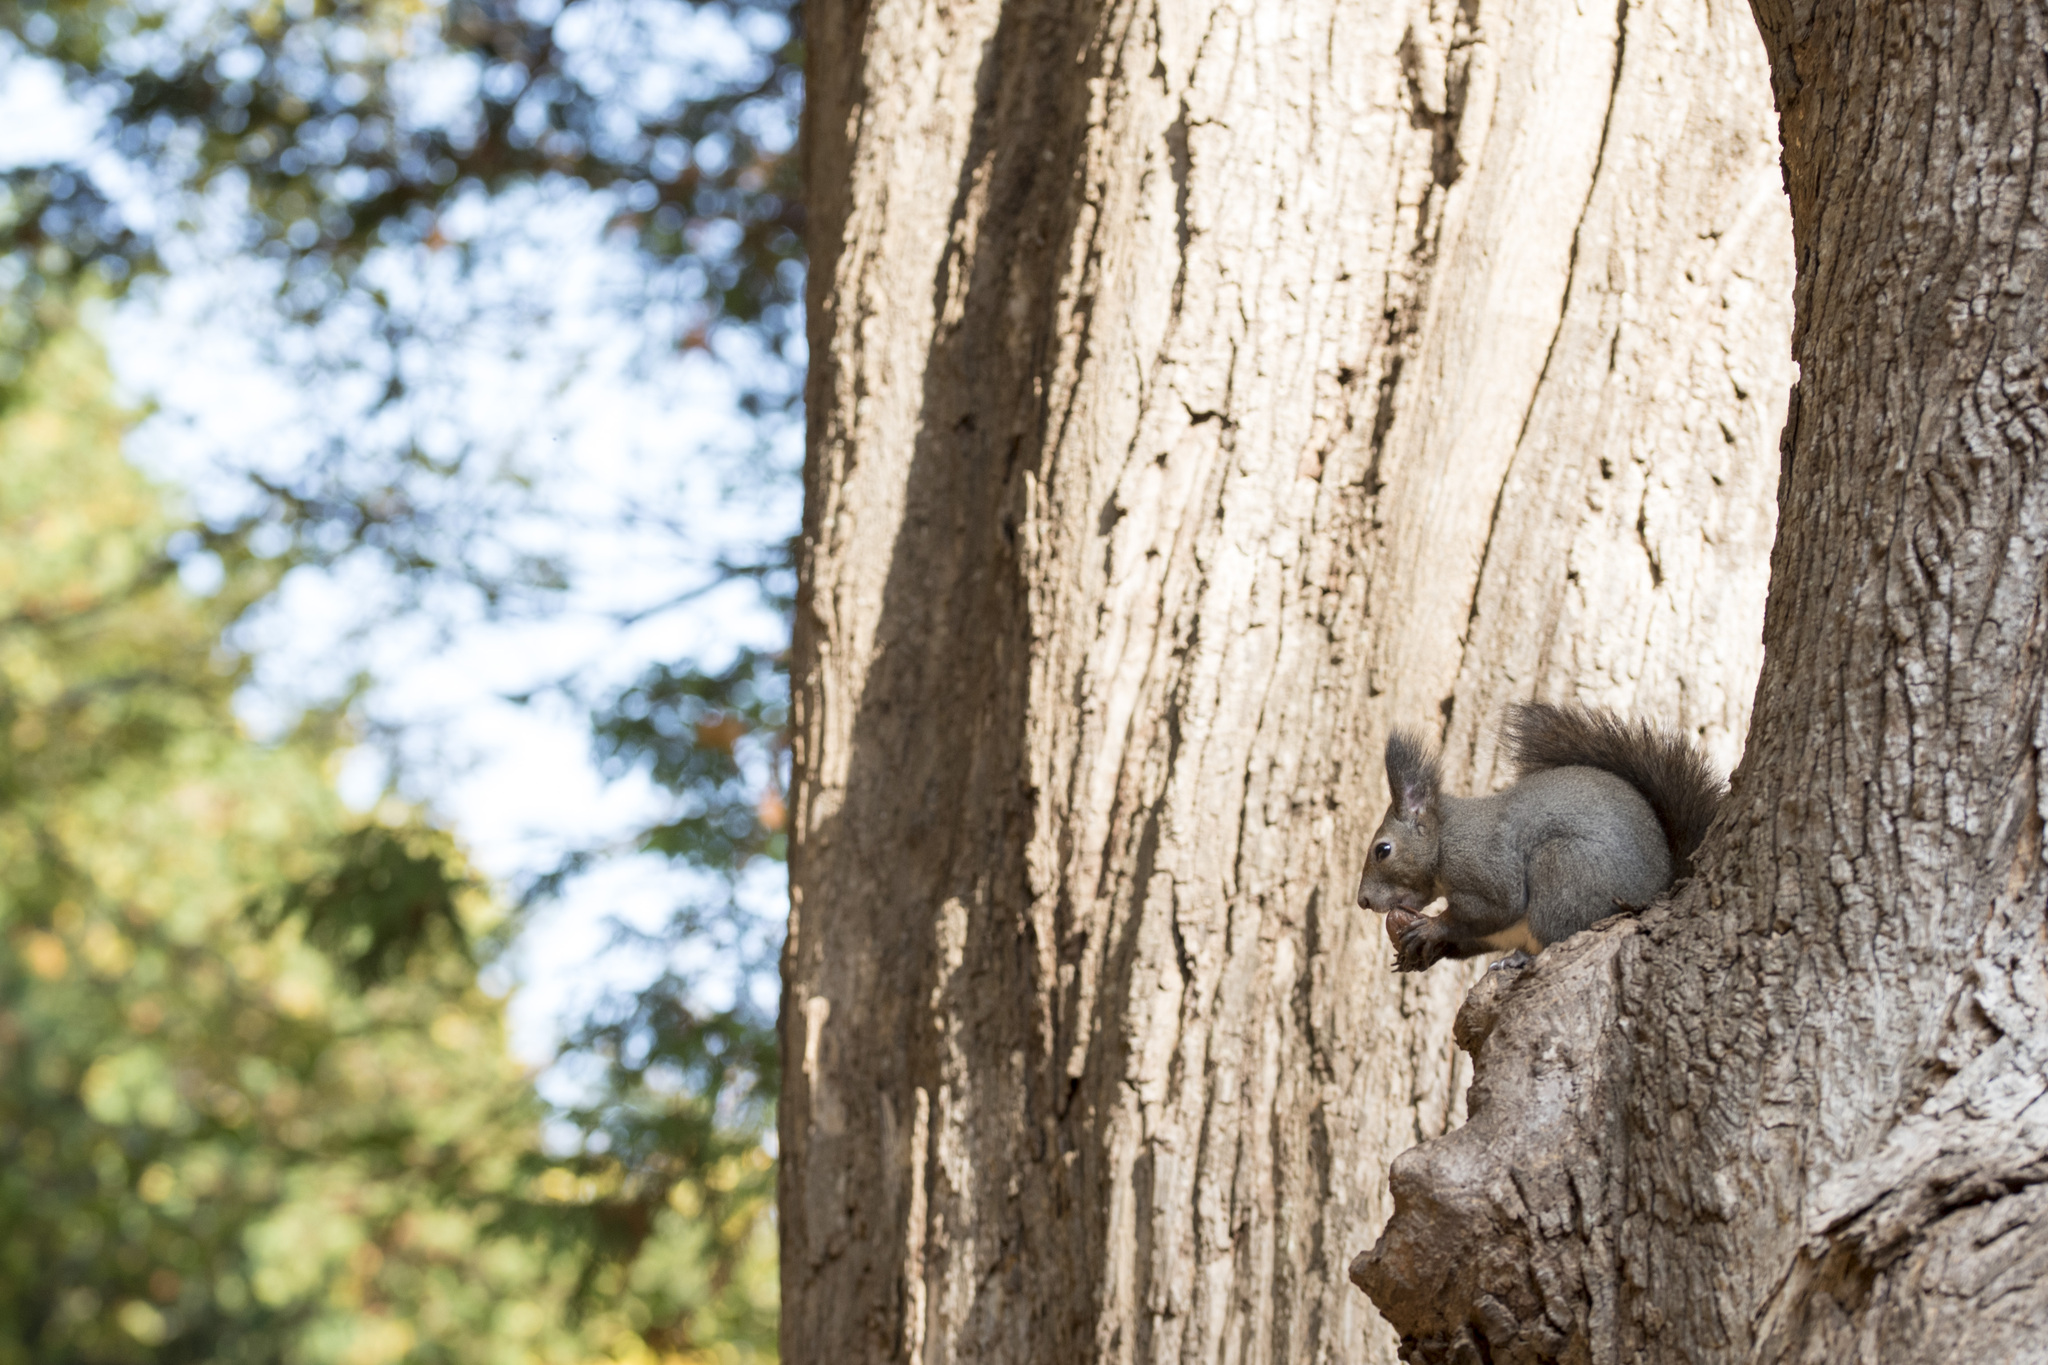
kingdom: Animalia
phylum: Chordata
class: Mammalia
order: Rodentia
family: Sciuridae
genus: Sciurus
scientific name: Sciurus vulgaris
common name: Eurasian red squirrel
